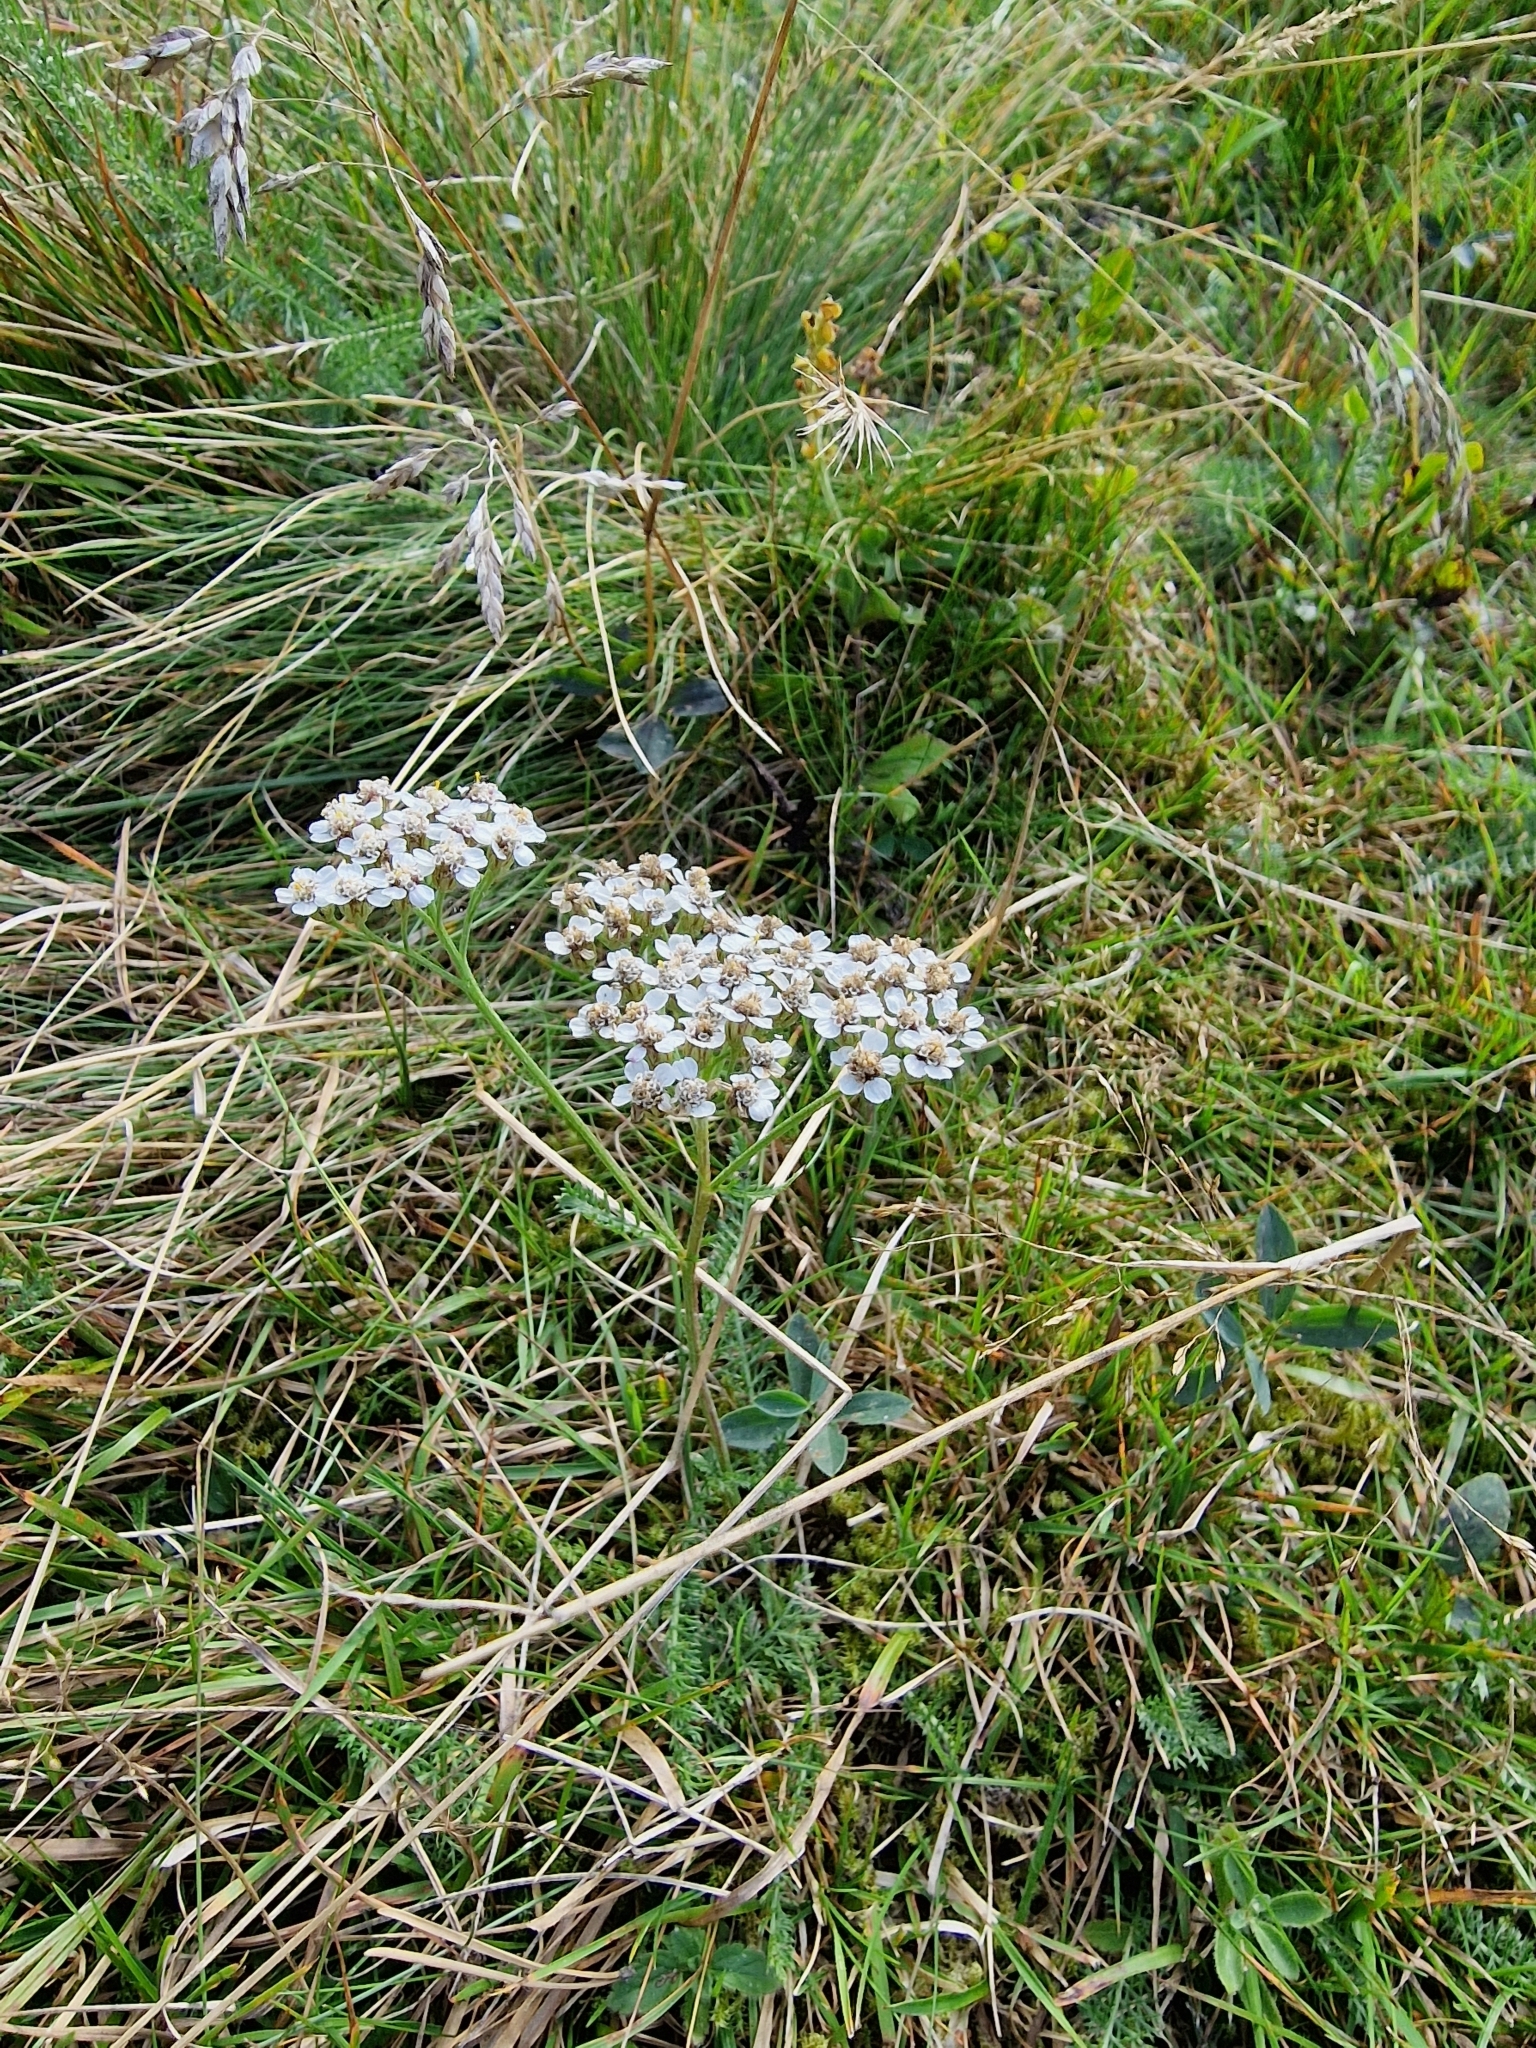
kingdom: Plantae
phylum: Tracheophyta
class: Magnoliopsida
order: Asterales
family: Asteraceae
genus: Achillea
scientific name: Achillea millefolium
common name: Yarrow
